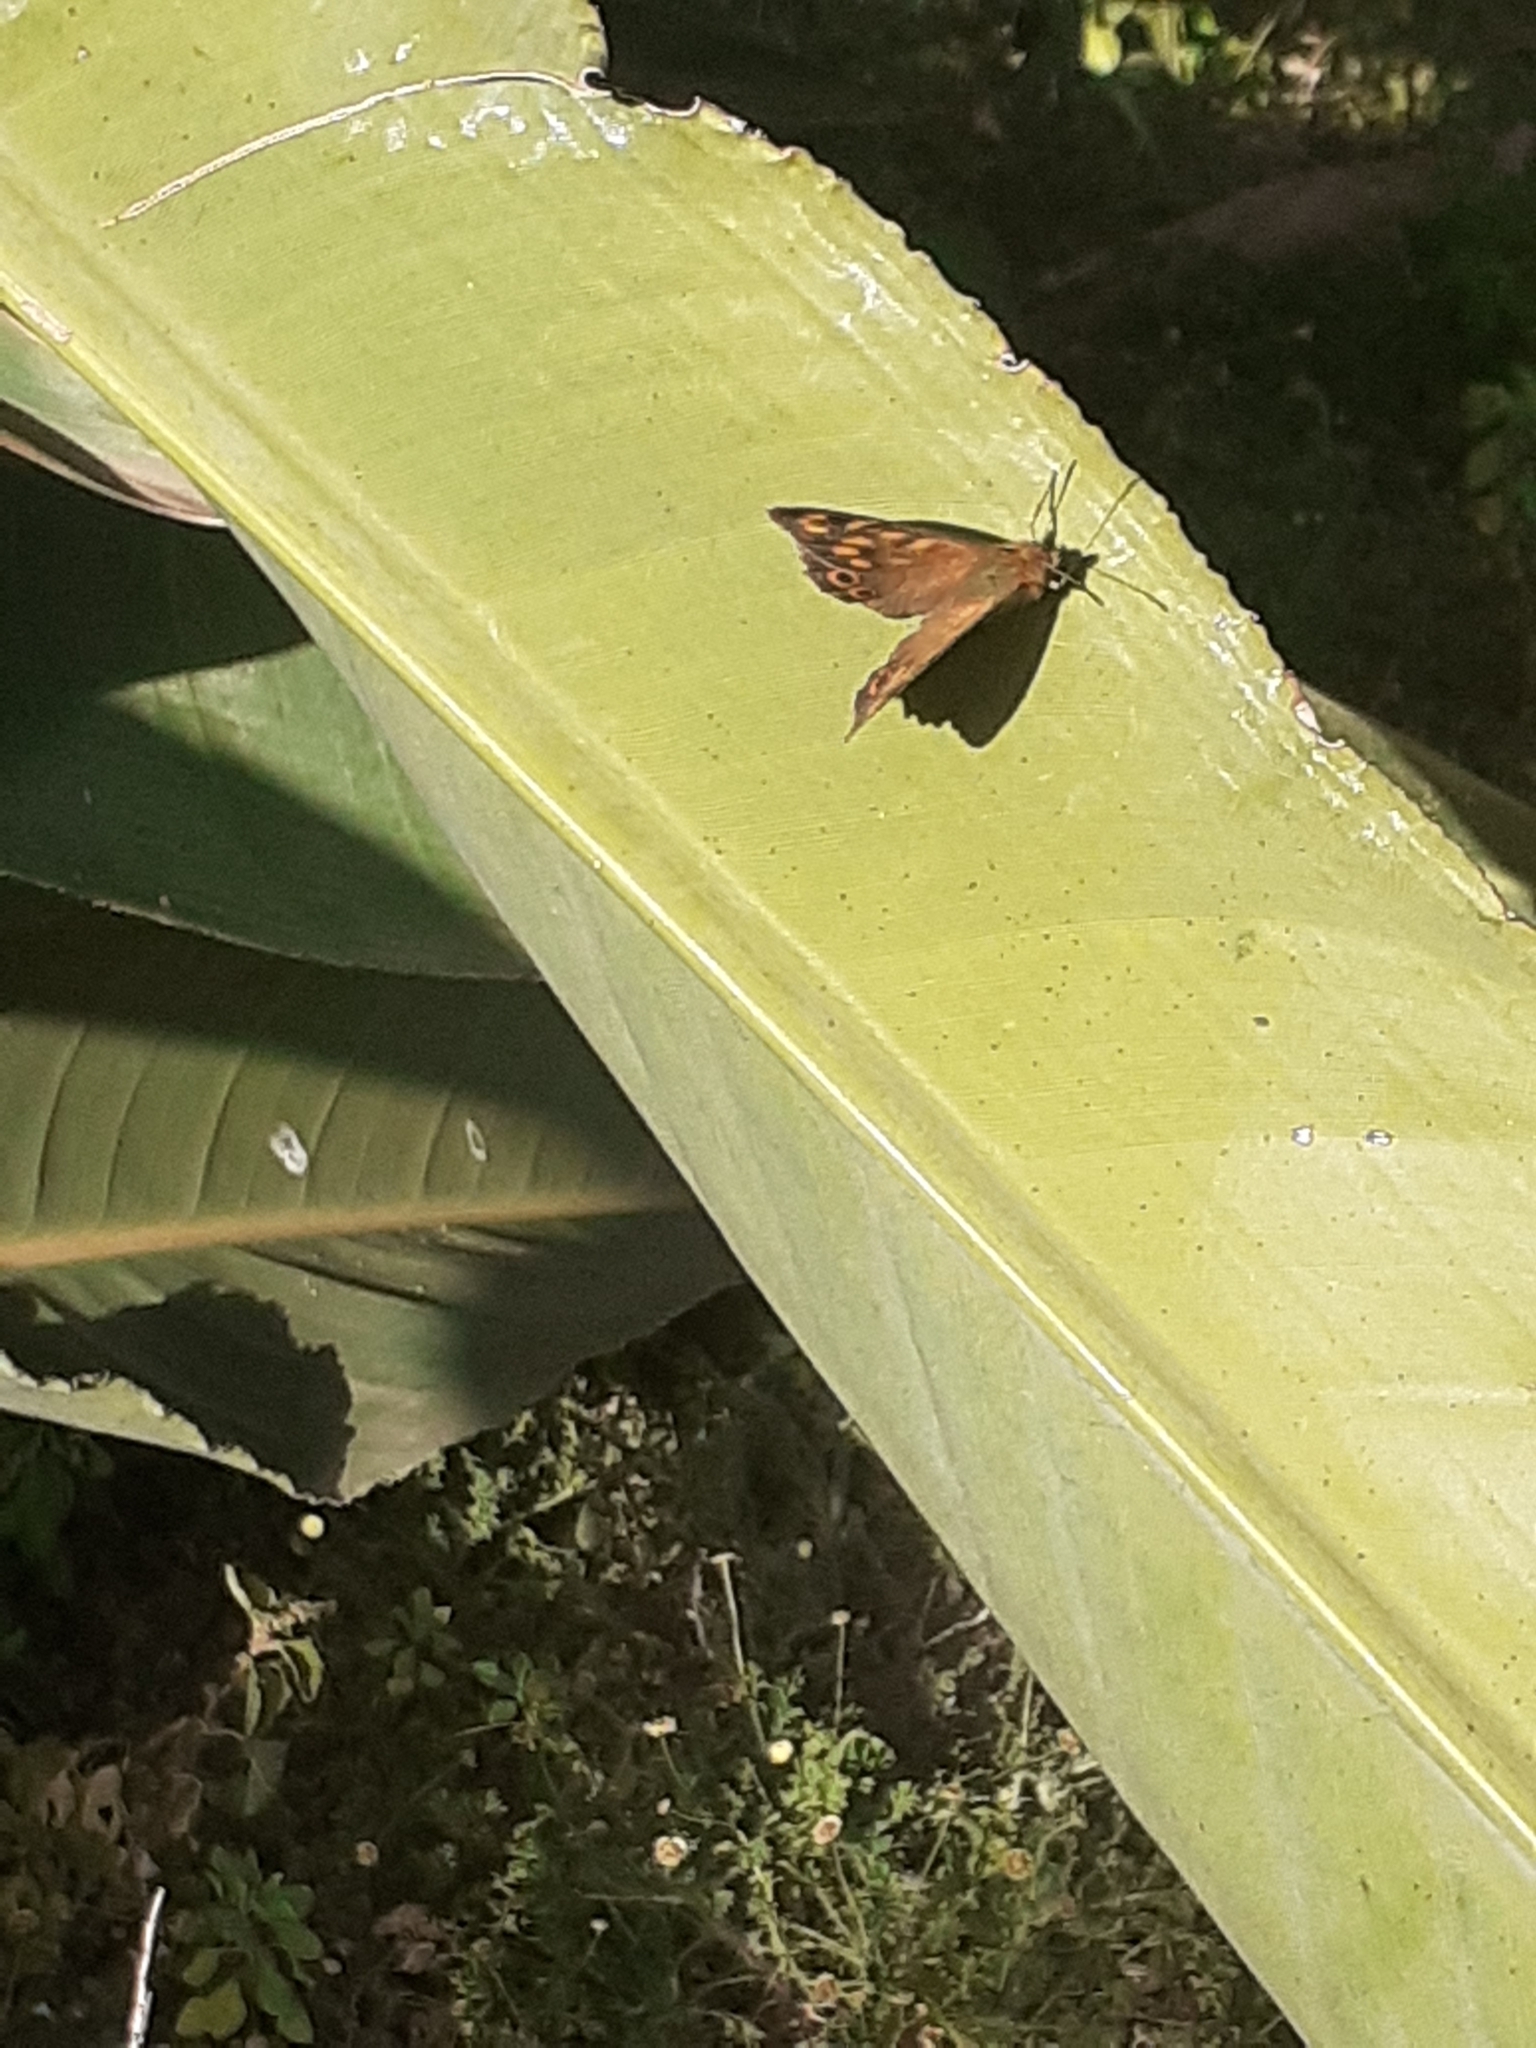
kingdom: Animalia
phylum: Arthropoda
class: Insecta
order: Lepidoptera
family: Nymphalidae
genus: Pararge
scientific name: Pararge aegeria
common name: Speckled wood
